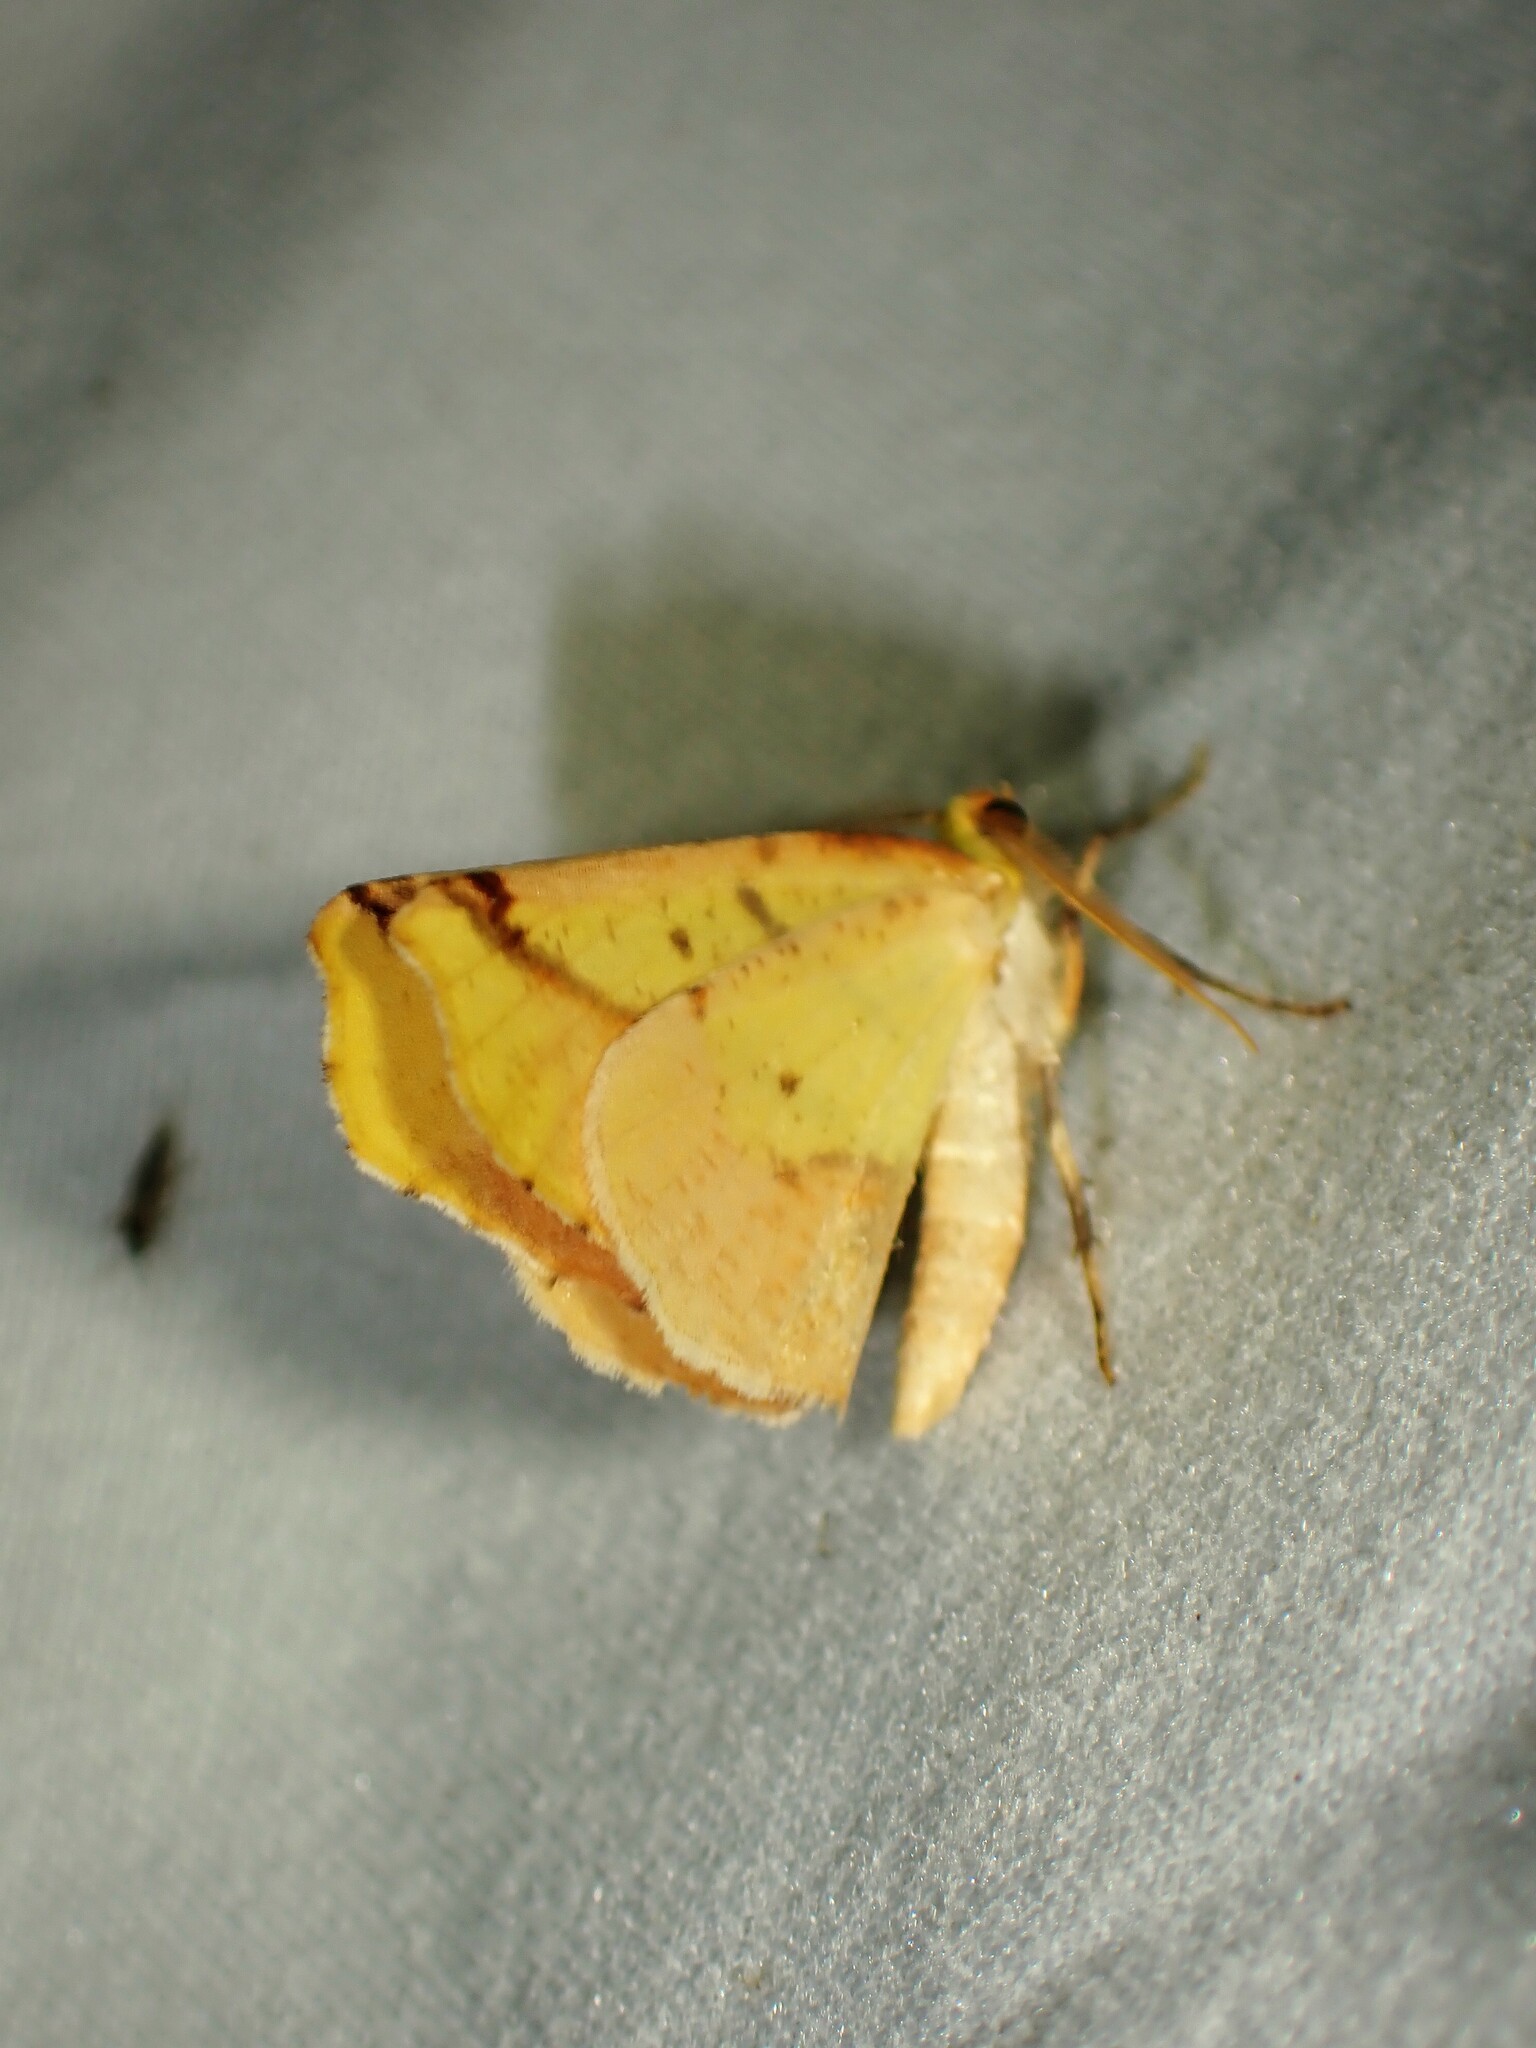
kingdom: Animalia
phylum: Arthropoda
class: Insecta
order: Lepidoptera
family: Geometridae
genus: Sicya
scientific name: Sicya macularia
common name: Sharp-lined yellow
